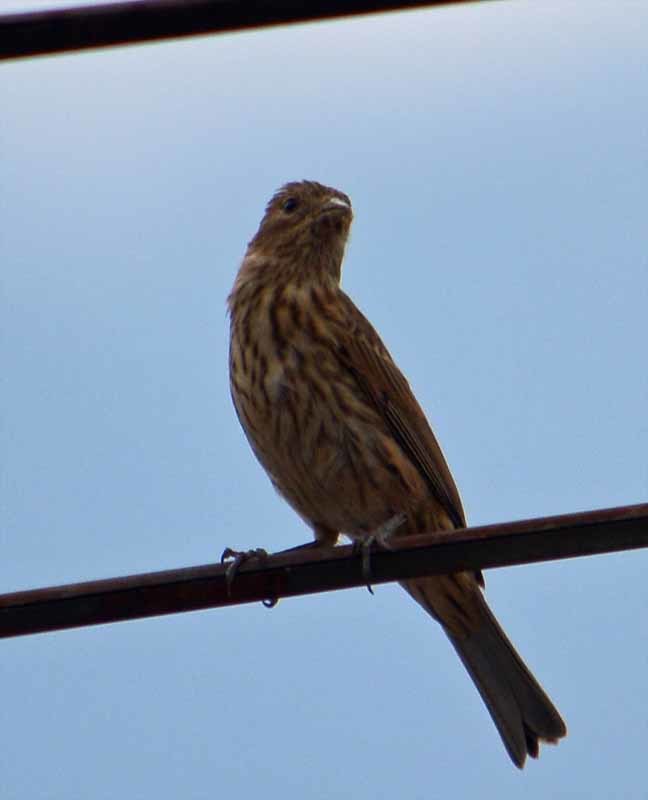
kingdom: Animalia
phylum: Chordata
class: Aves
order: Passeriformes
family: Fringillidae
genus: Haemorhous
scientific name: Haemorhous mexicanus
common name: House finch
